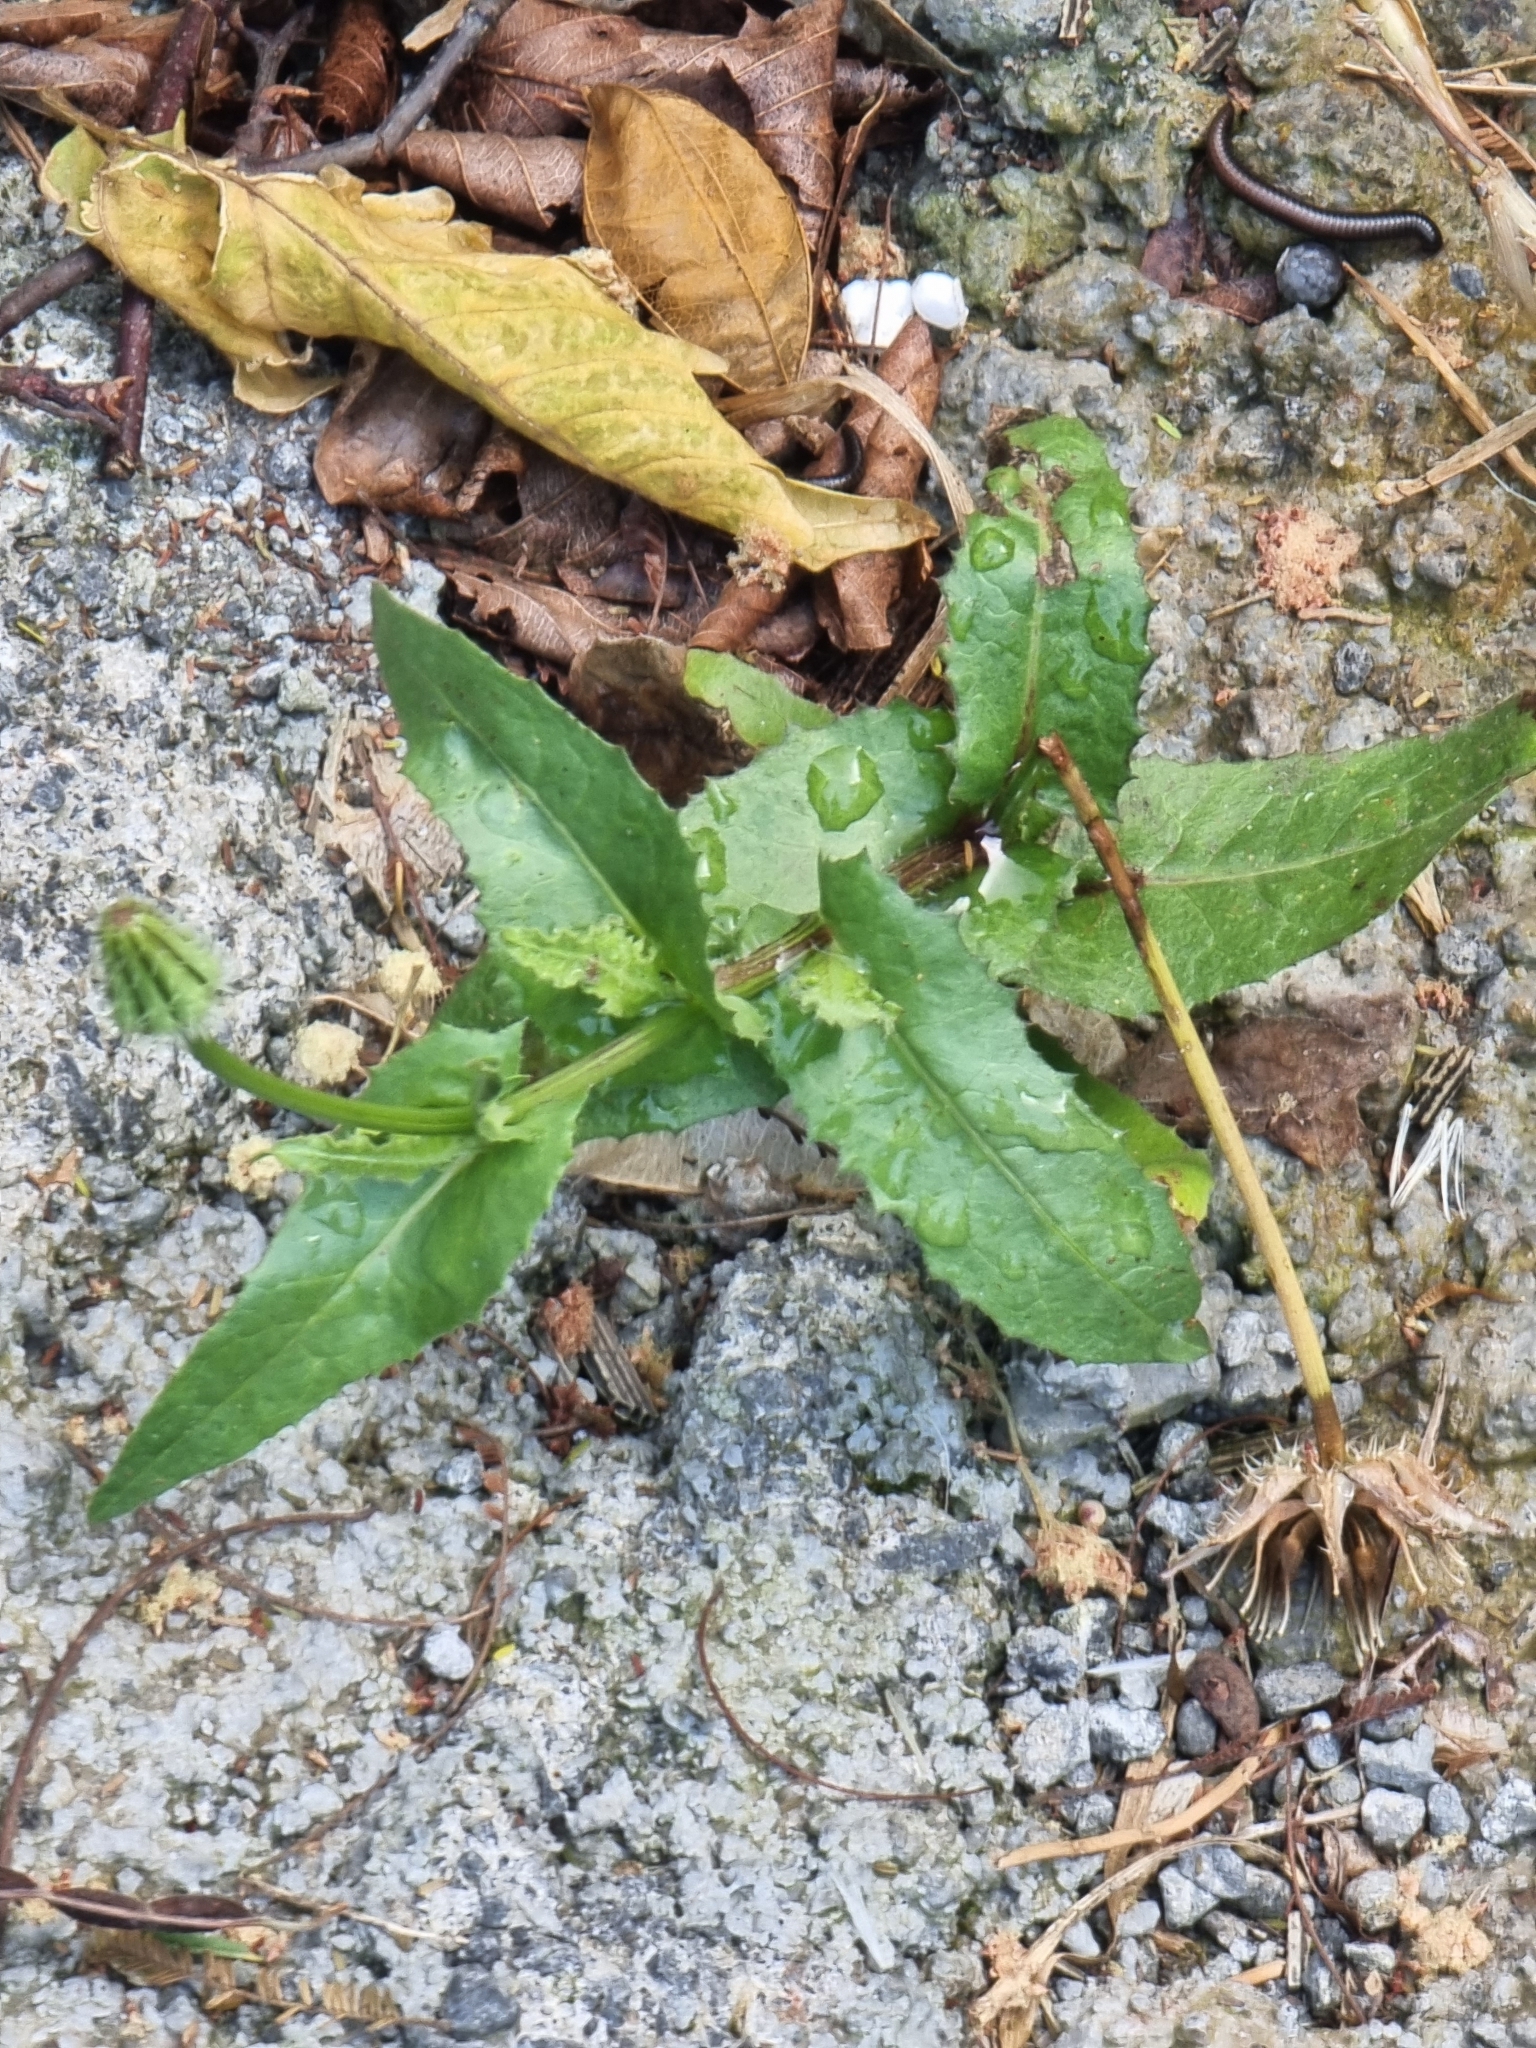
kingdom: Plantae
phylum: Tracheophyta
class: Magnoliopsida
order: Asterales
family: Asteraceae
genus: Urospermum
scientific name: Urospermum picroides
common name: False hawkbit
